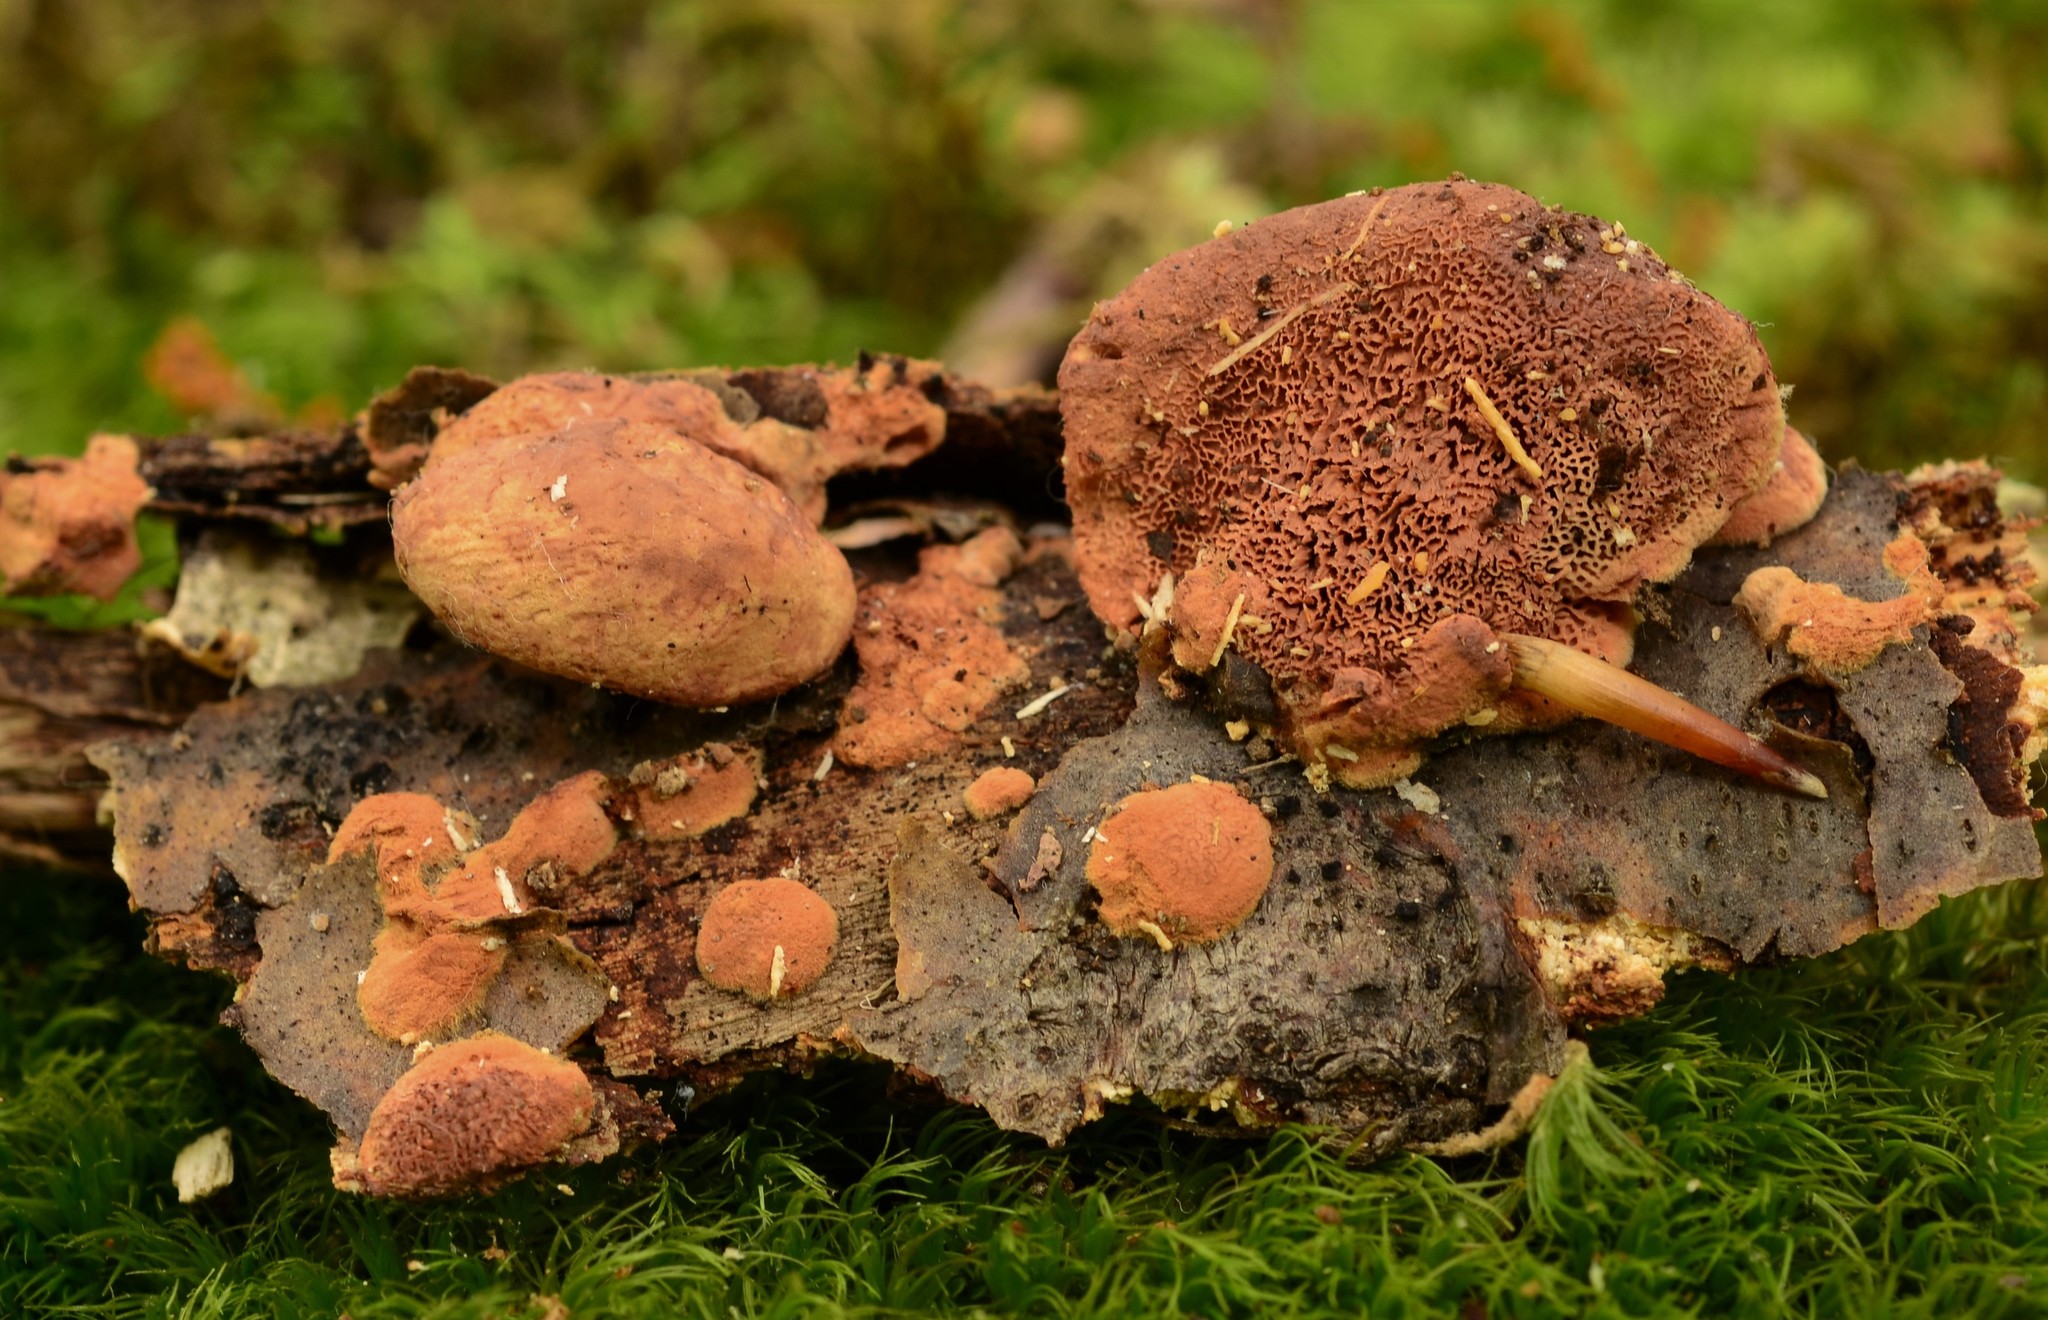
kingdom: Fungi
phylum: Basidiomycota
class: Agaricomycetes
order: Polyporales
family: Phanerochaetaceae
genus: Hapalopilus
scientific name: Hapalopilus rutilans
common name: Tender nesting polypore
